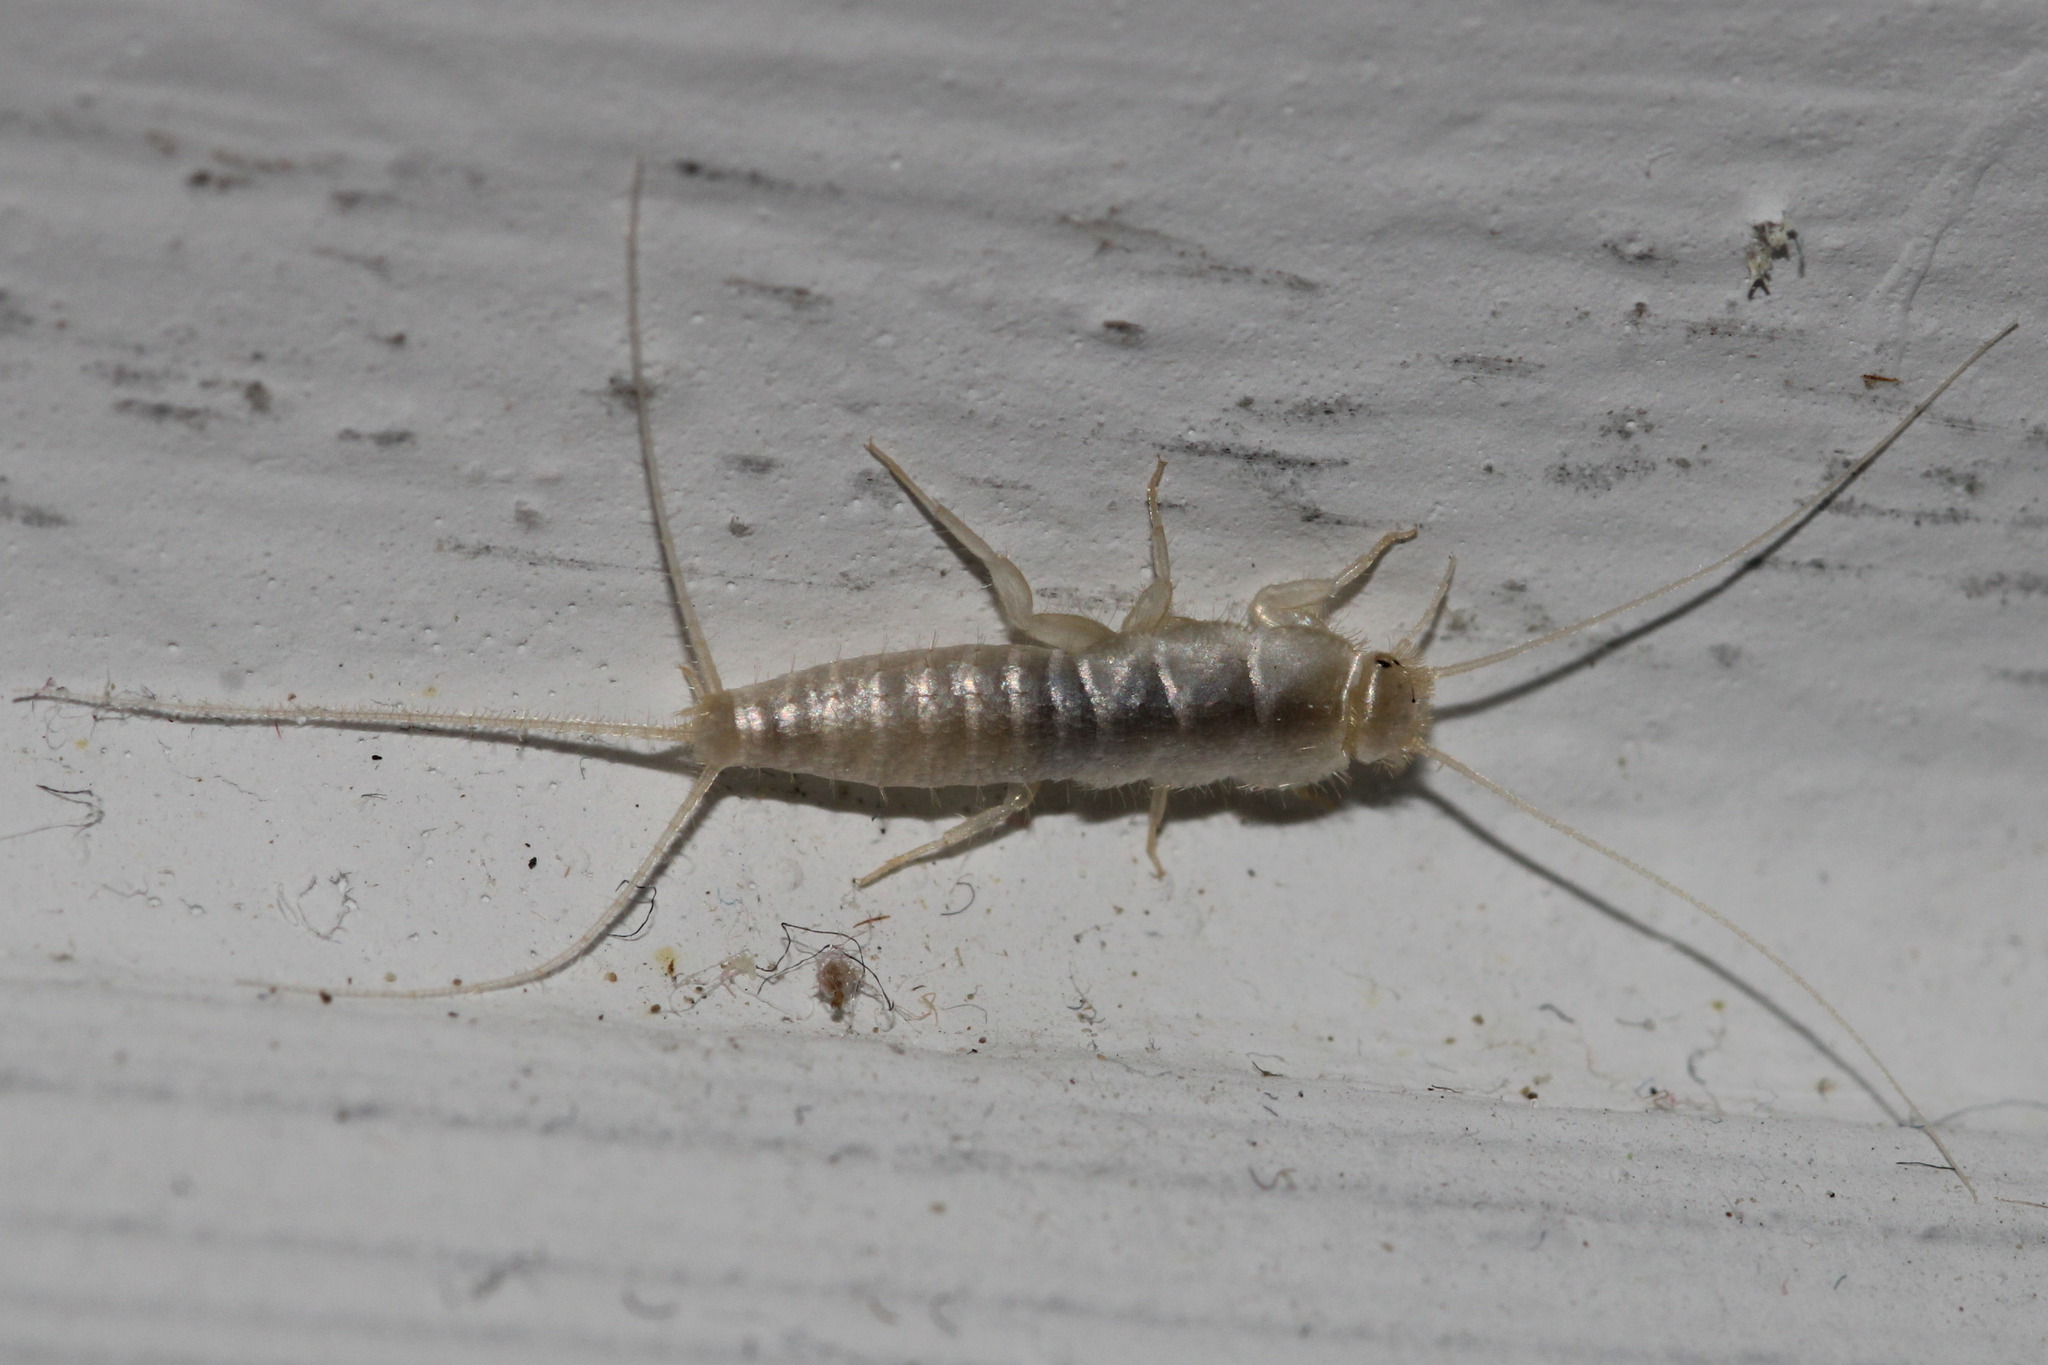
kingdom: Animalia
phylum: Arthropoda
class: Insecta
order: Zygentoma
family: Lepismatidae
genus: Ctenolepisma
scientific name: Ctenolepisma calvum
